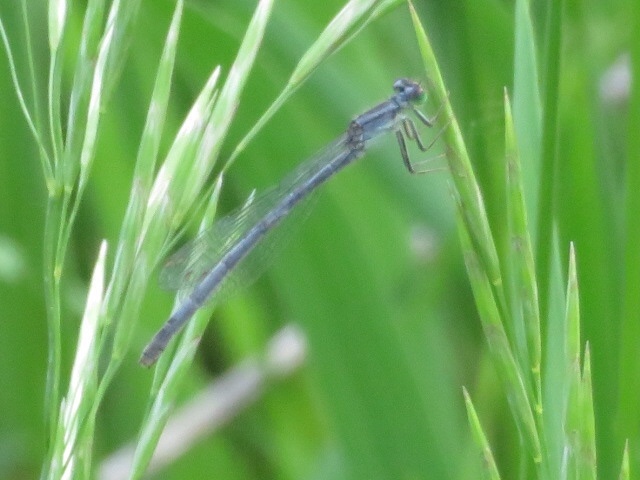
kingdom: Animalia
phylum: Arthropoda
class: Insecta
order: Odonata
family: Coenagrionidae
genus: Ischnura
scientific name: Ischnura verticalis
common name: Eastern forktail
